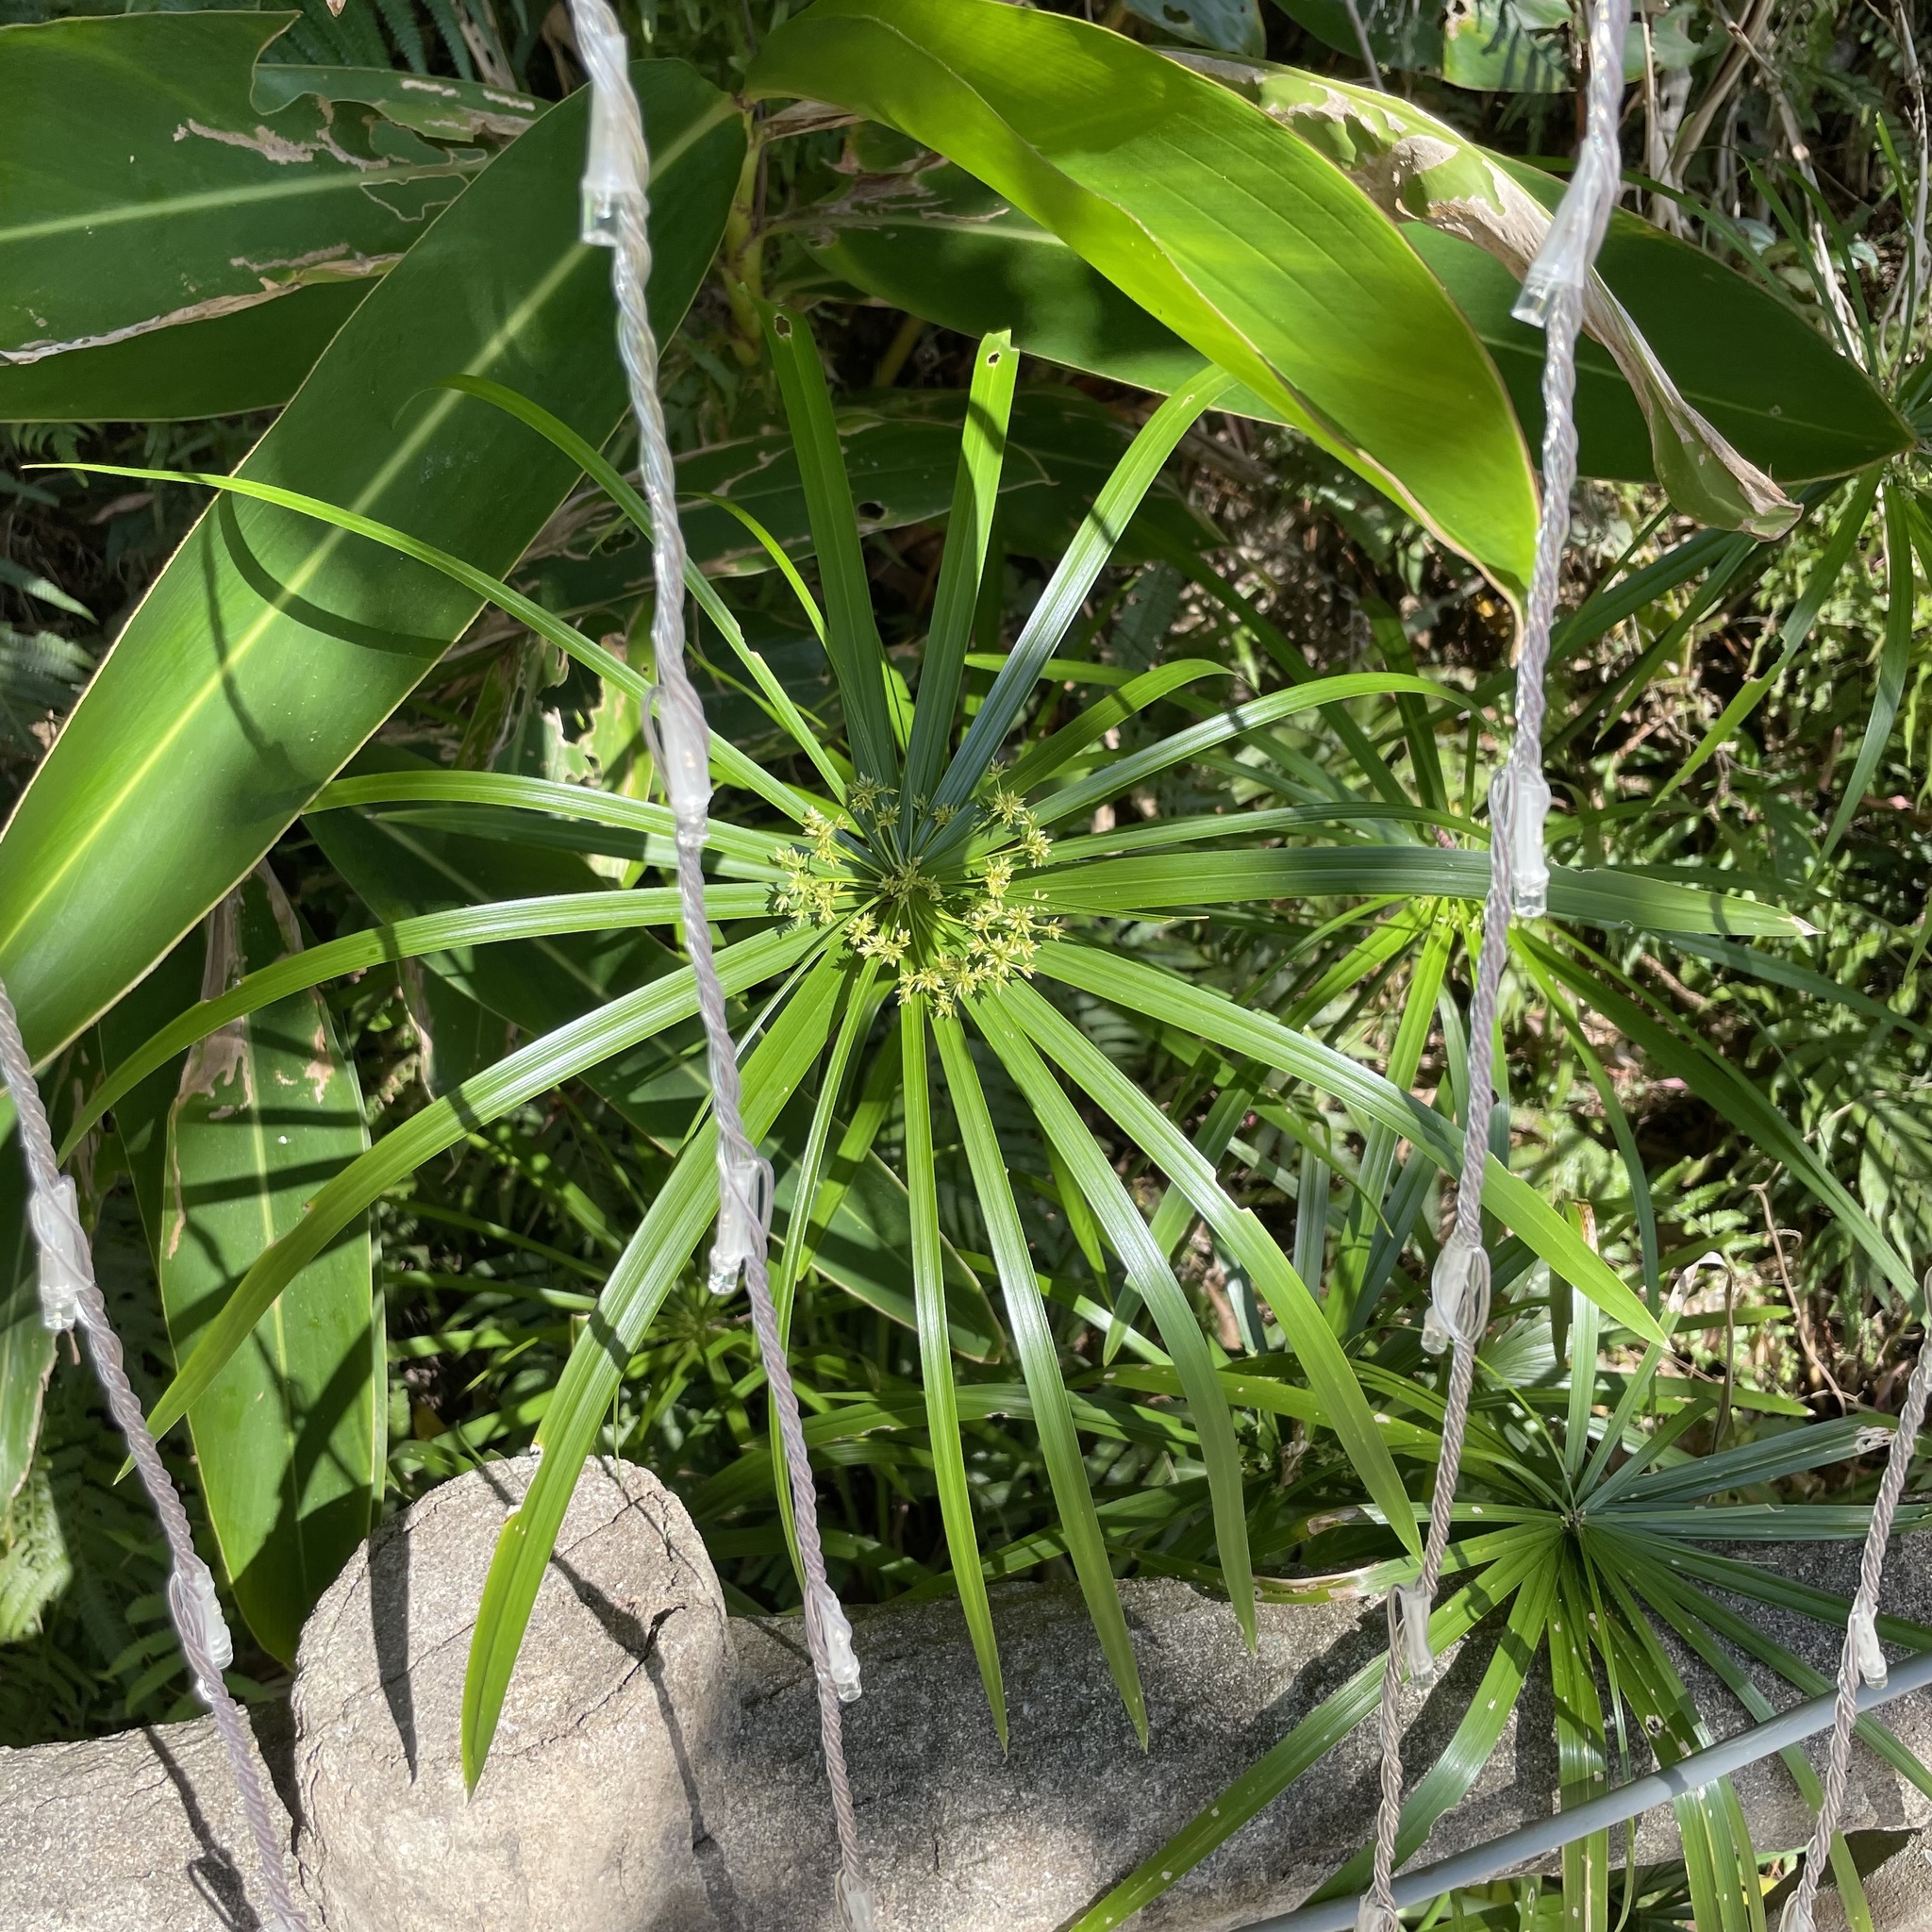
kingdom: Plantae
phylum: Tracheophyta
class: Liliopsida
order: Poales
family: Cyperaceae
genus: Cyperus
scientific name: Cyperus alternifolius
